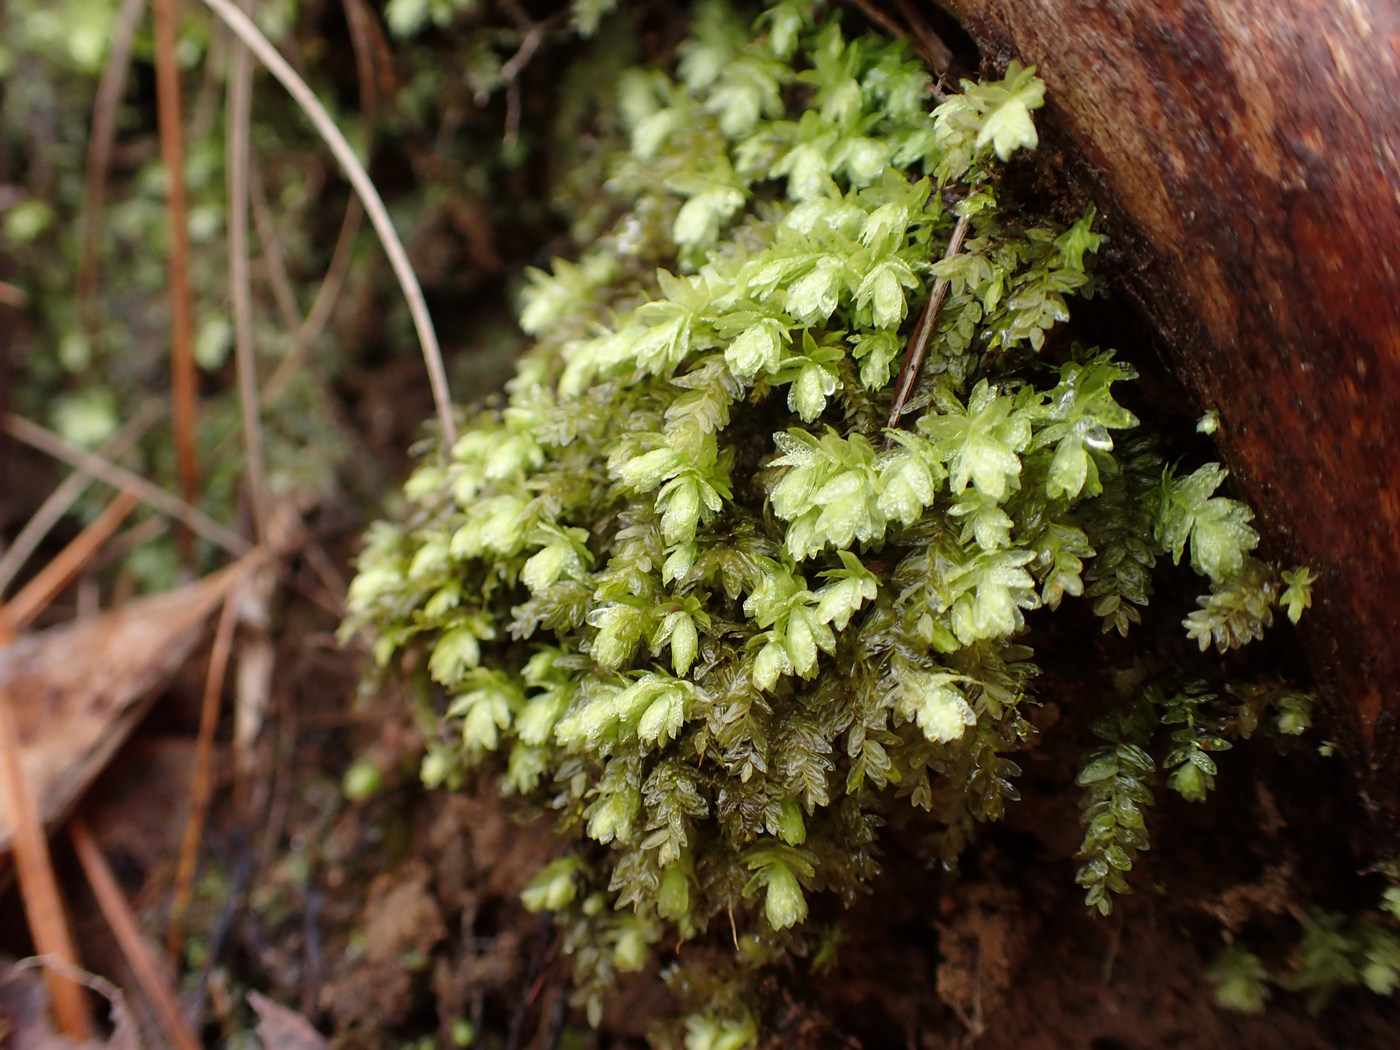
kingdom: Plantae
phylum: Bryophyta
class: Bryopsida
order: Aulacomniales
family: Aulacomniaceae
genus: Aulacomnium
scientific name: Aulacomnium heterostichum
